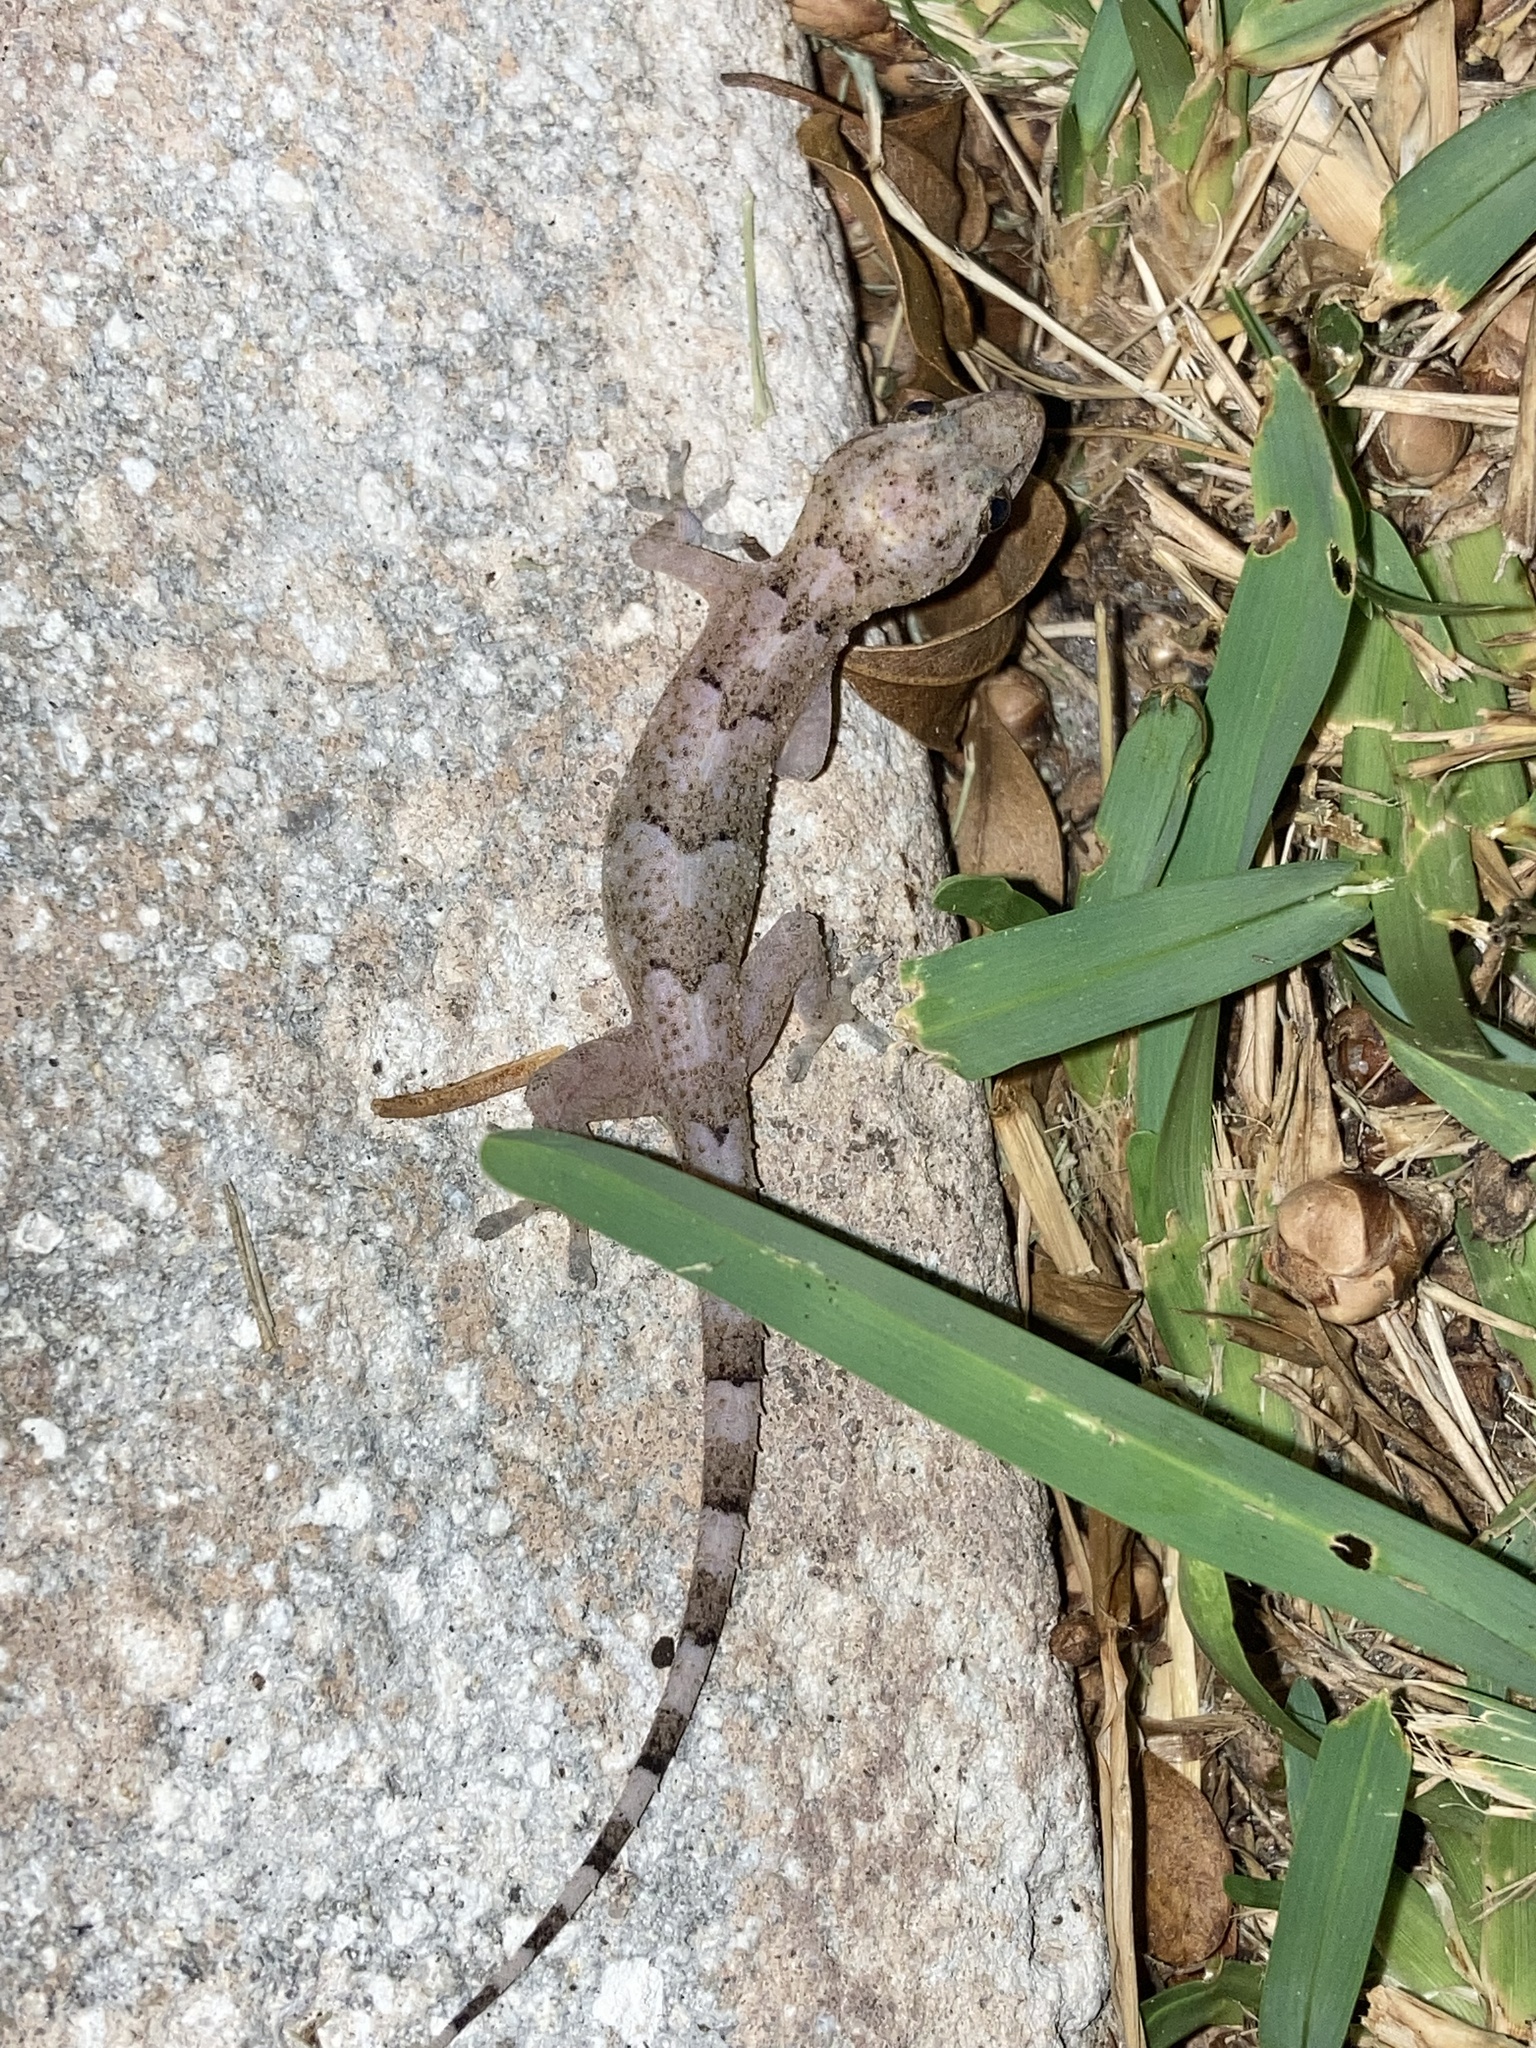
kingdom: Animalia
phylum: Chordata
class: Squamata
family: Gekkonidae
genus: Hemidactylus
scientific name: Hemidactylus mabouia
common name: House gecko
